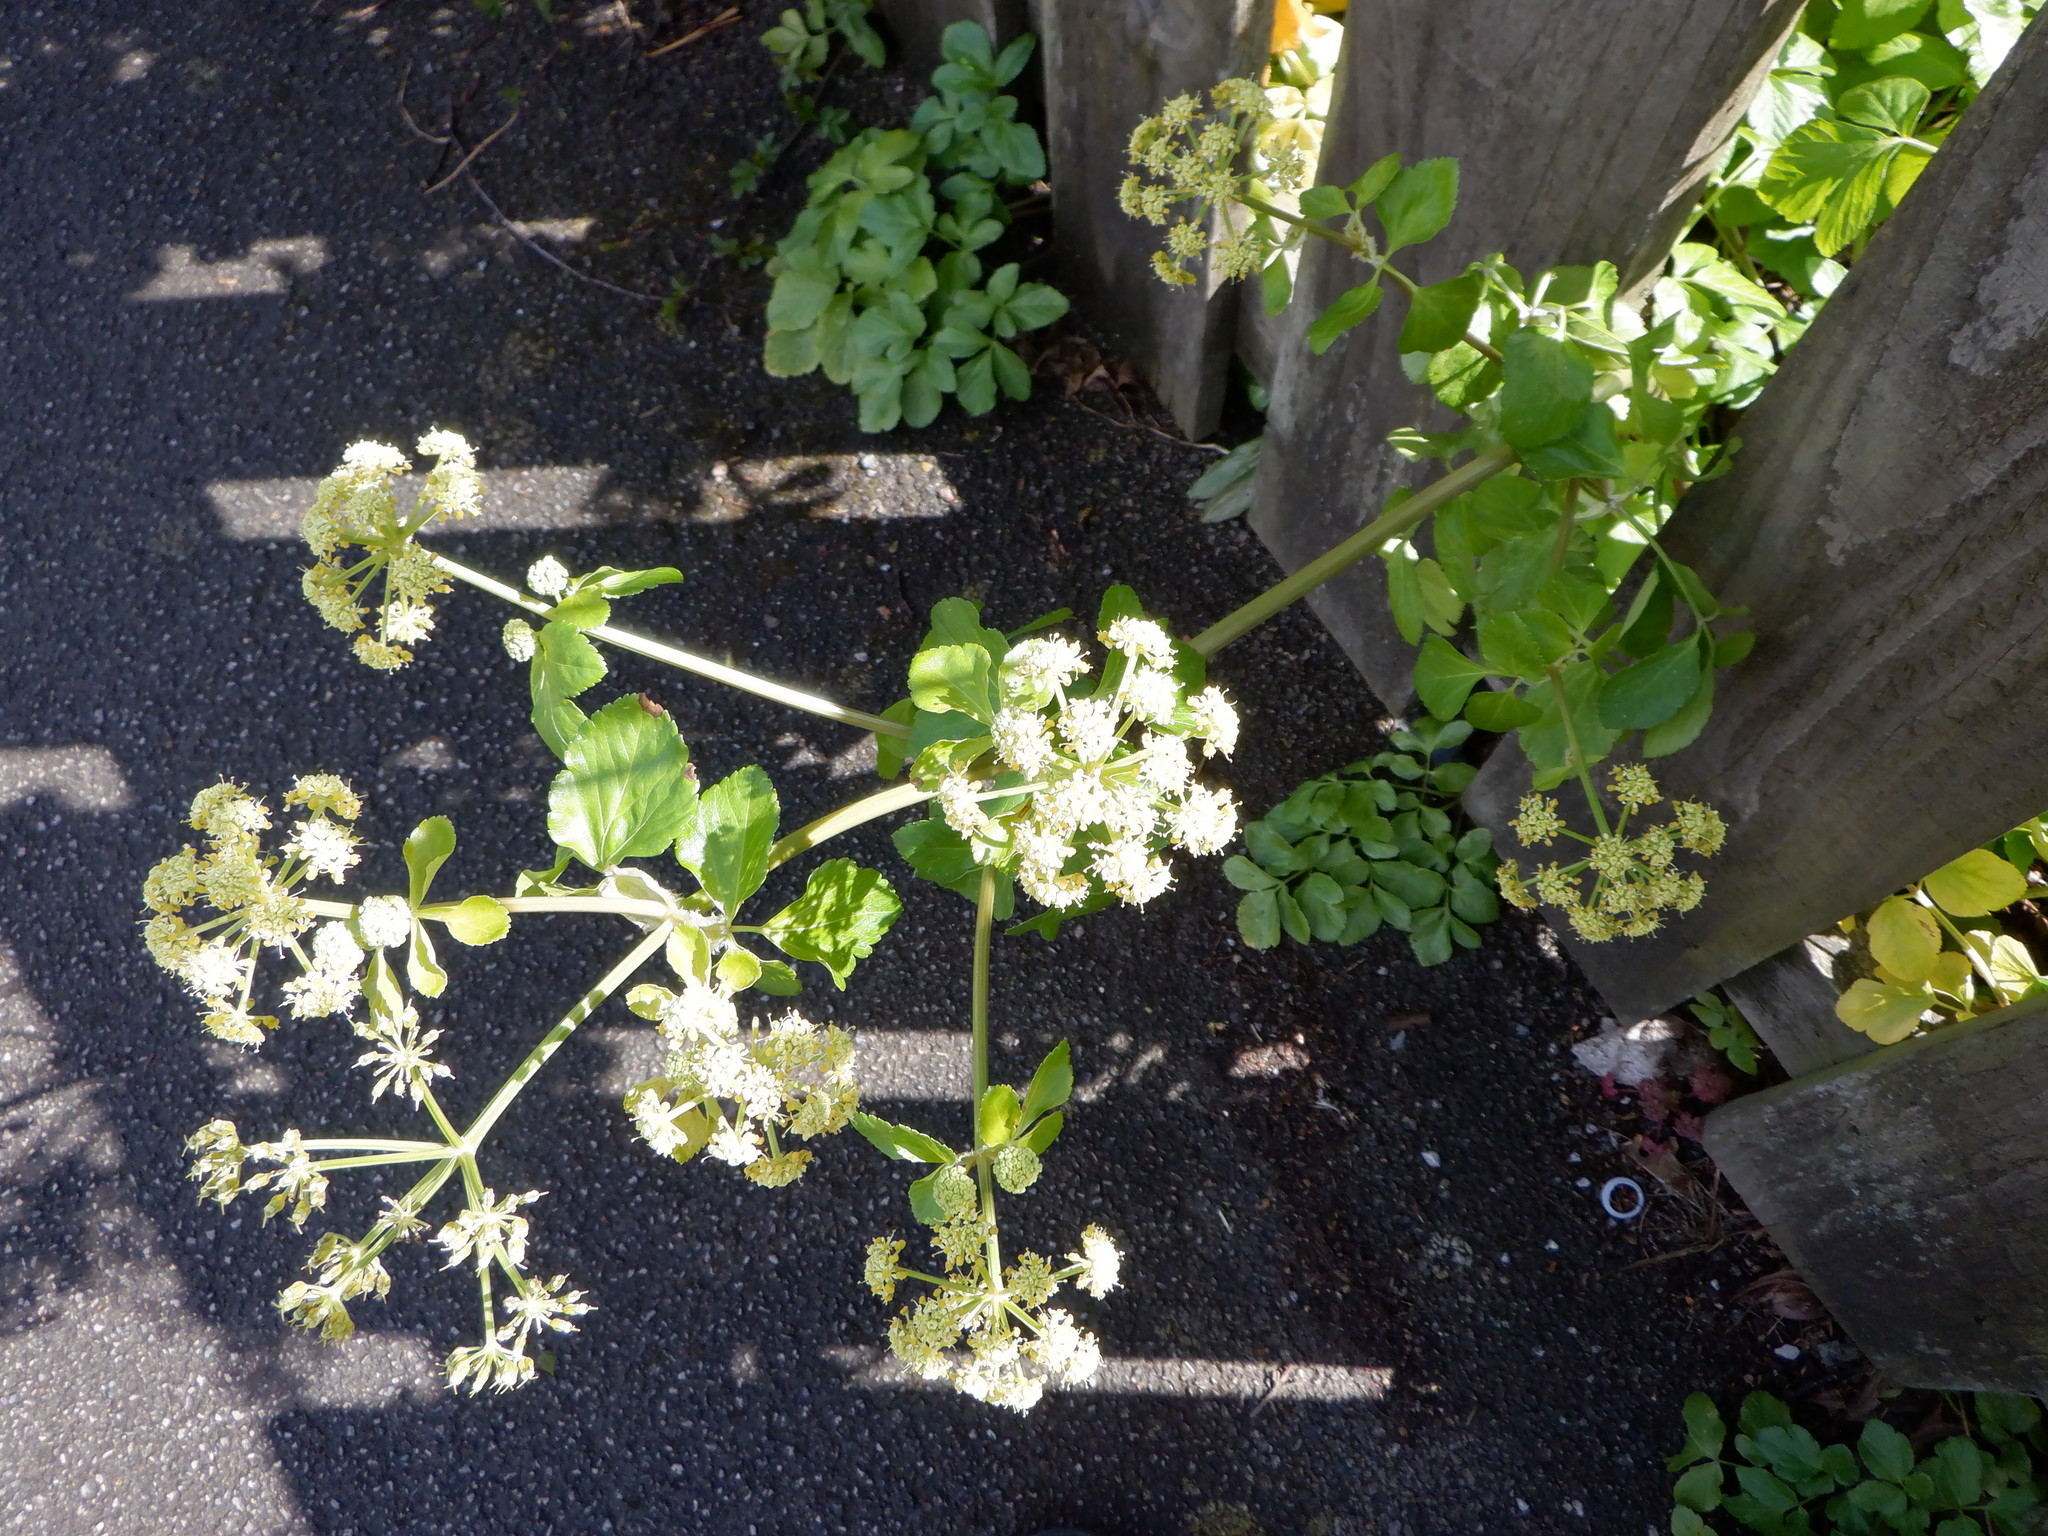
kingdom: Plantae
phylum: Tracheophyta
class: Magnoliopsida
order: Apiales
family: Apiaceae
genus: Smyrnium
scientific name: Smyrnium olusatrum
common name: Alexanders
